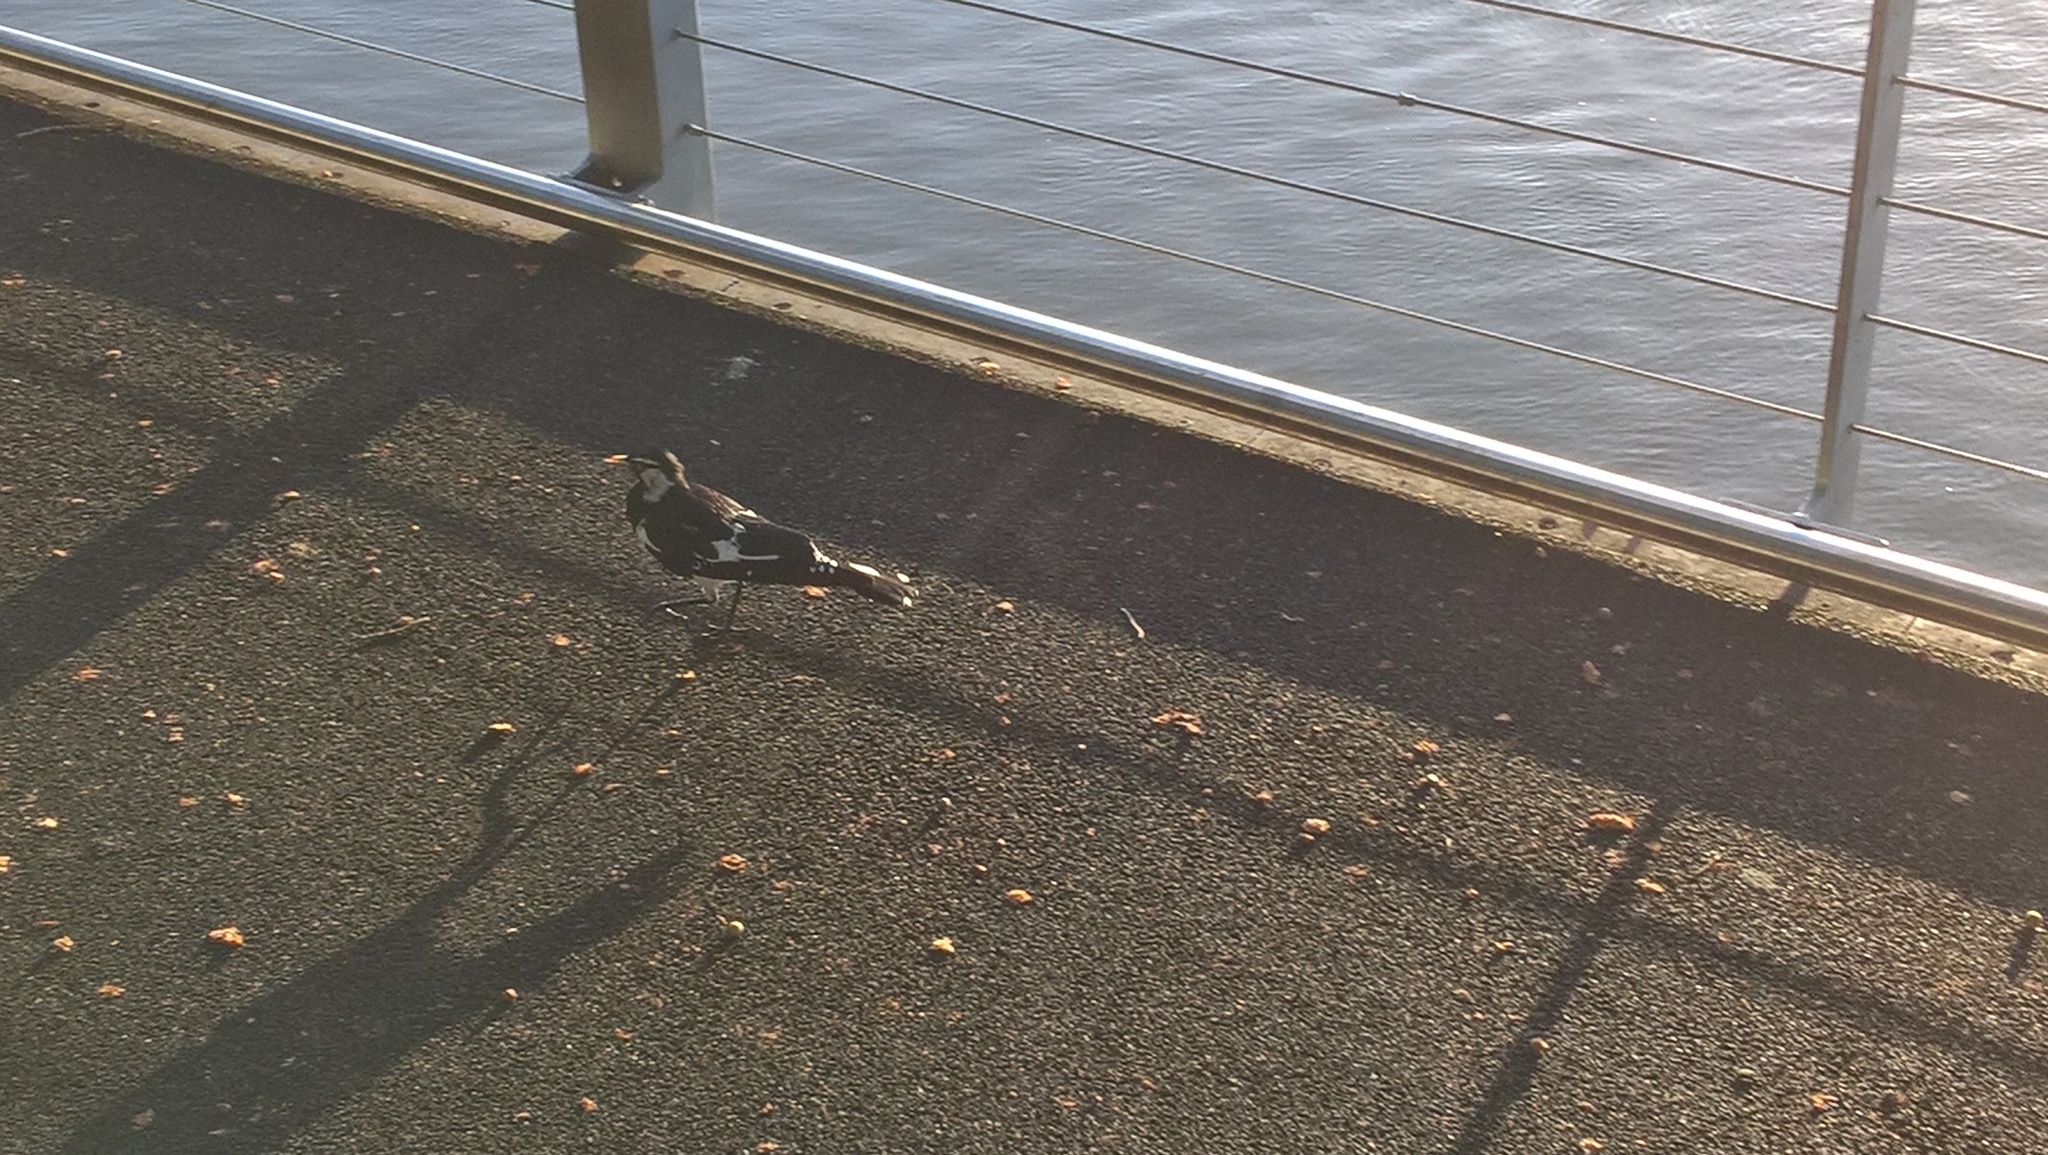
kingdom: Animalia
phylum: Chordata
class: Aves
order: Passeriformes
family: Monarchidae
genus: Grallina
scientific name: Grallina cyanoleuca
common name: Magpie-lark
